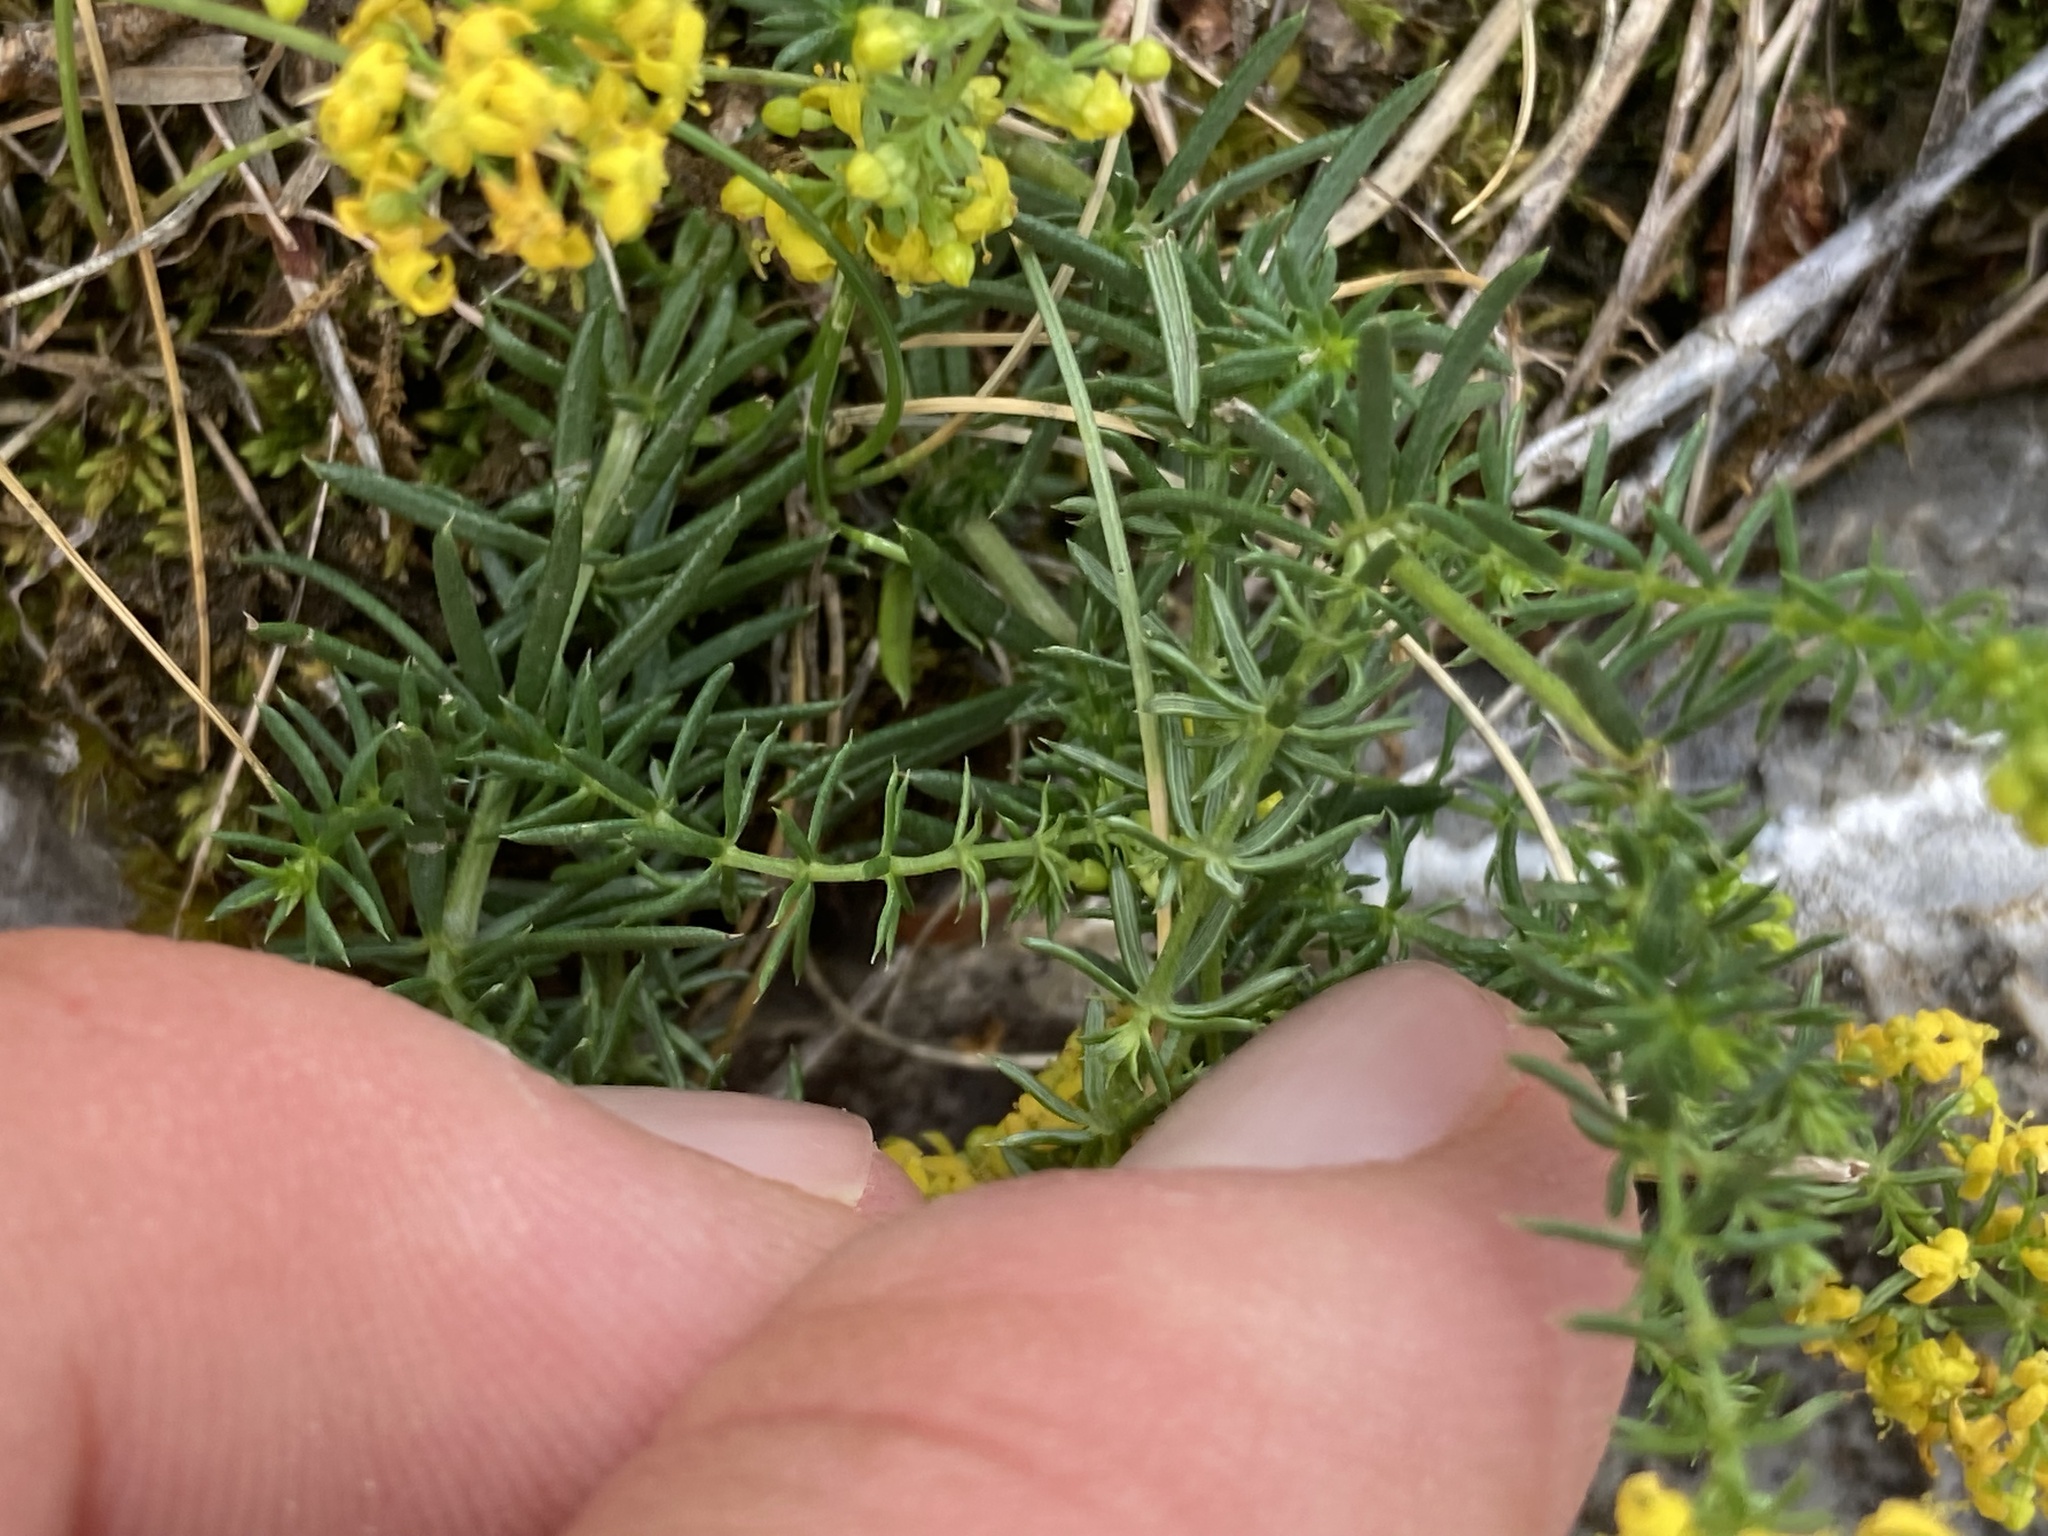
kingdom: Plantae
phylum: Tracheophyta
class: Magnoliopsida
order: Gentianales
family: Rubiaceae
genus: Galium
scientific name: Galium verum
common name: Lady's bedstraw
